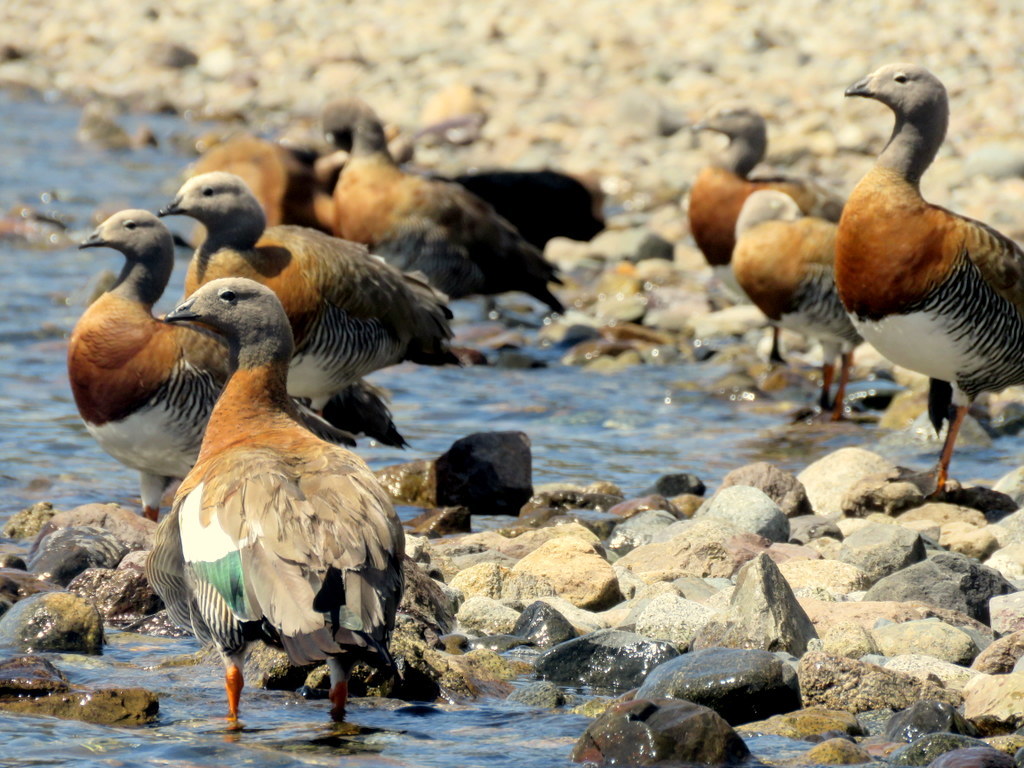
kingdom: Animalia
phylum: Chordata
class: Aves
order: Anseriformes
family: Anatidae
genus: Chloephaga
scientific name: Chloephaga poliocephala
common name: Ashy-headed goose
